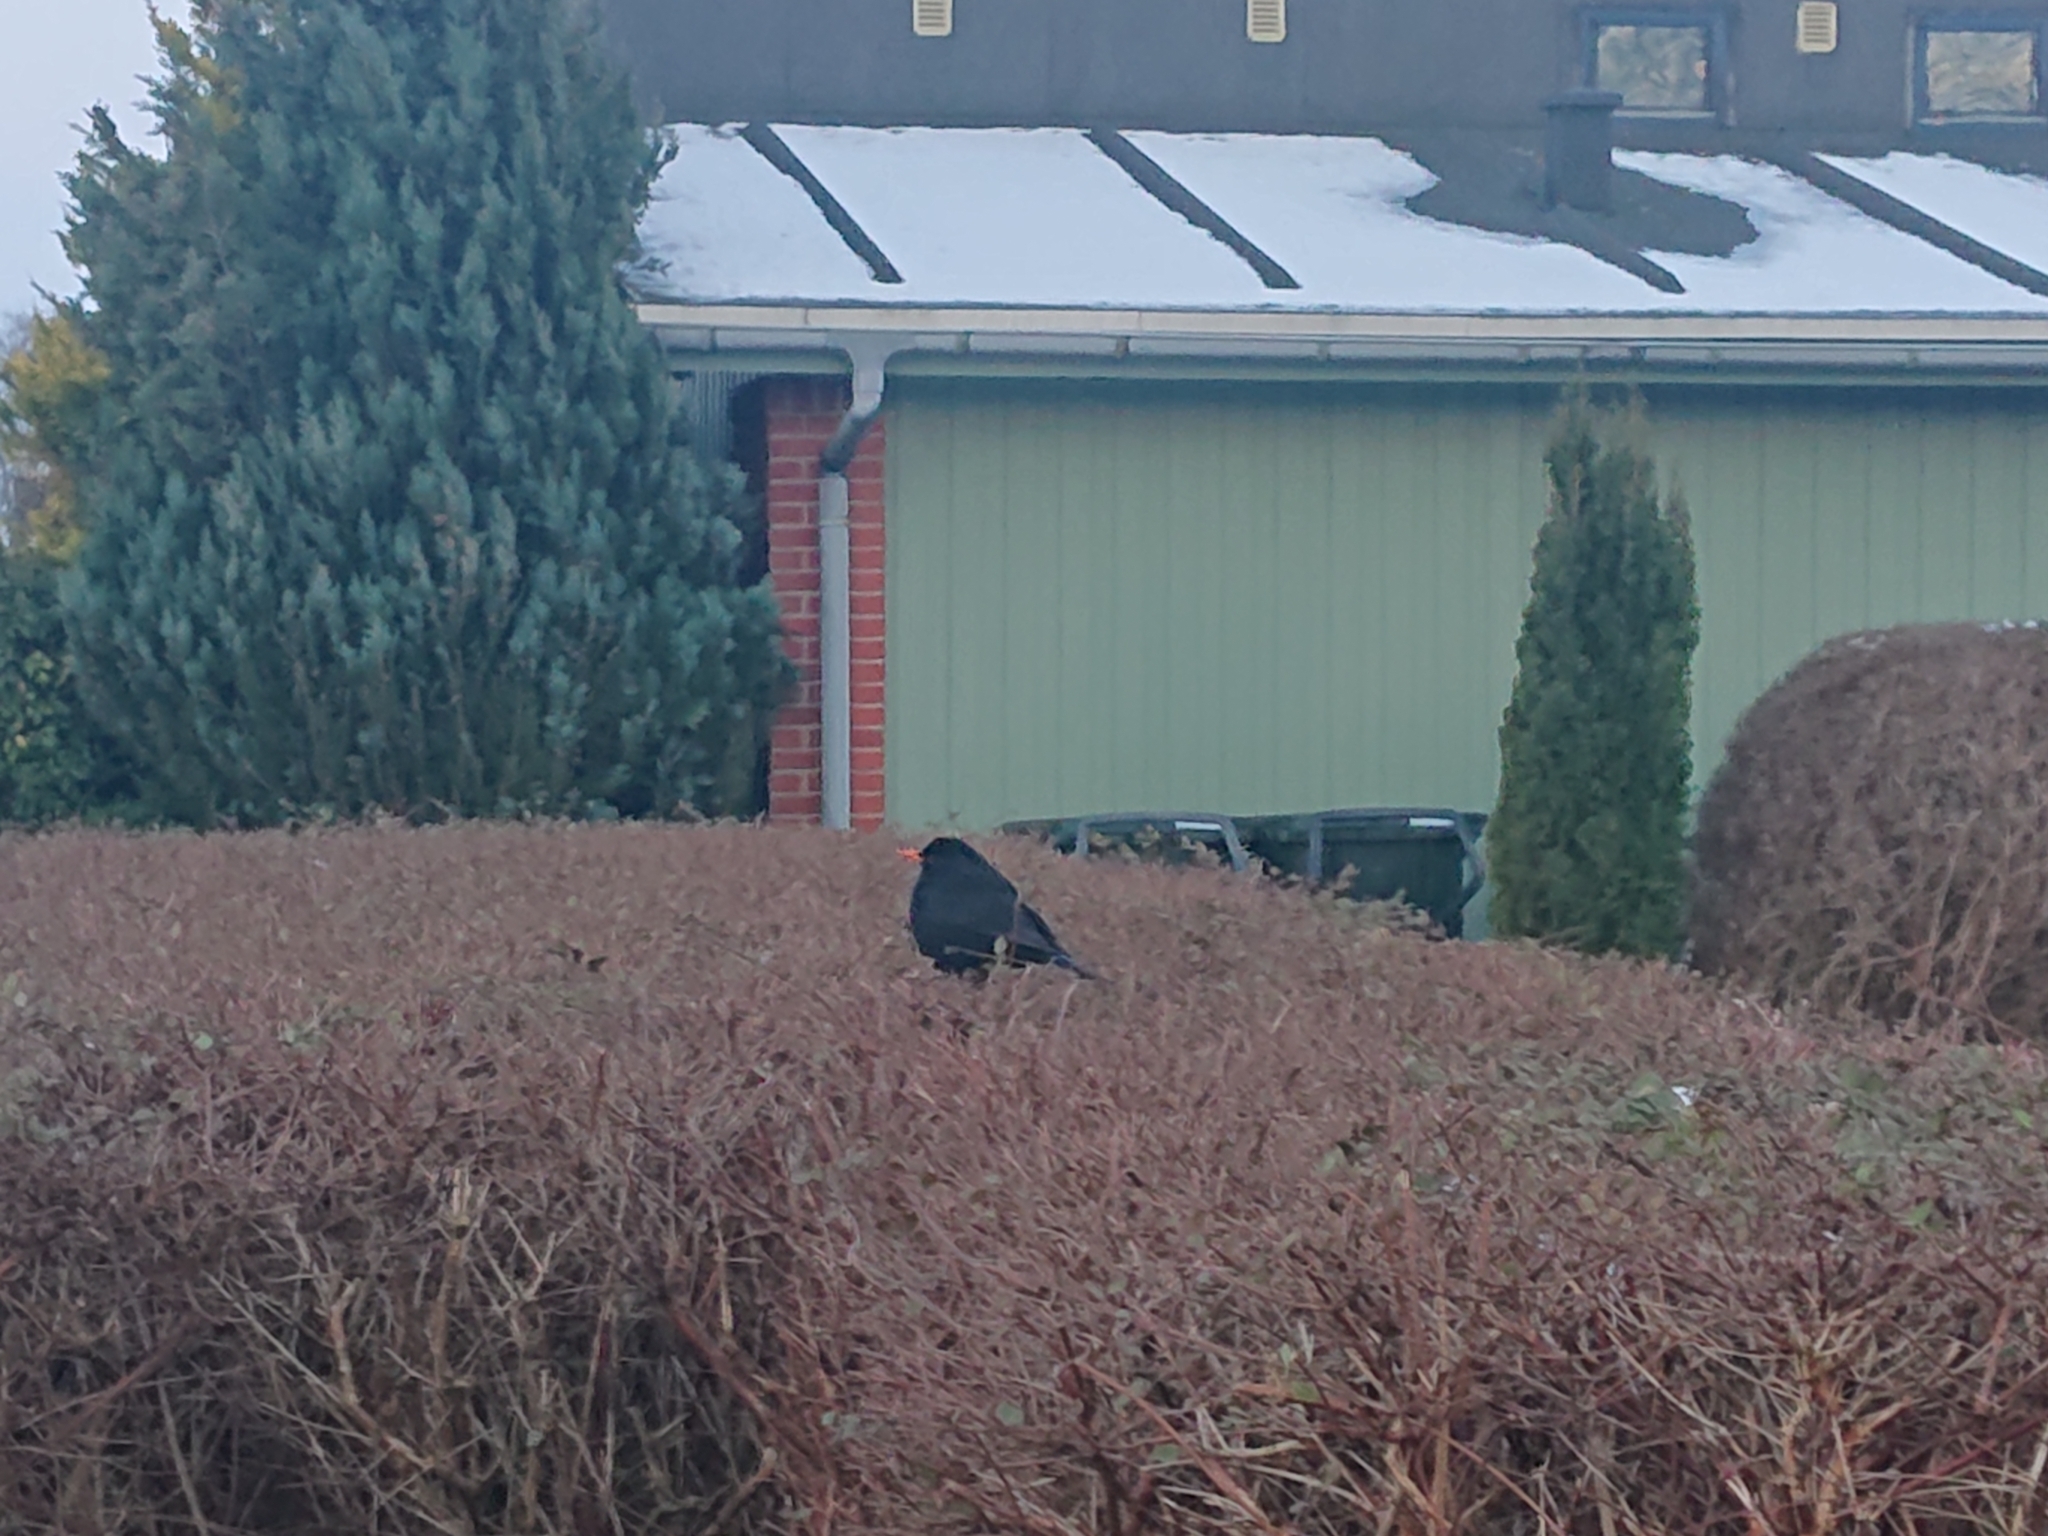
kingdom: Animalia
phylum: Chordata
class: Aves
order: Passeriformes
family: Turdidae
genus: Turdus
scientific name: Turdus merula
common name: Common blackbird
